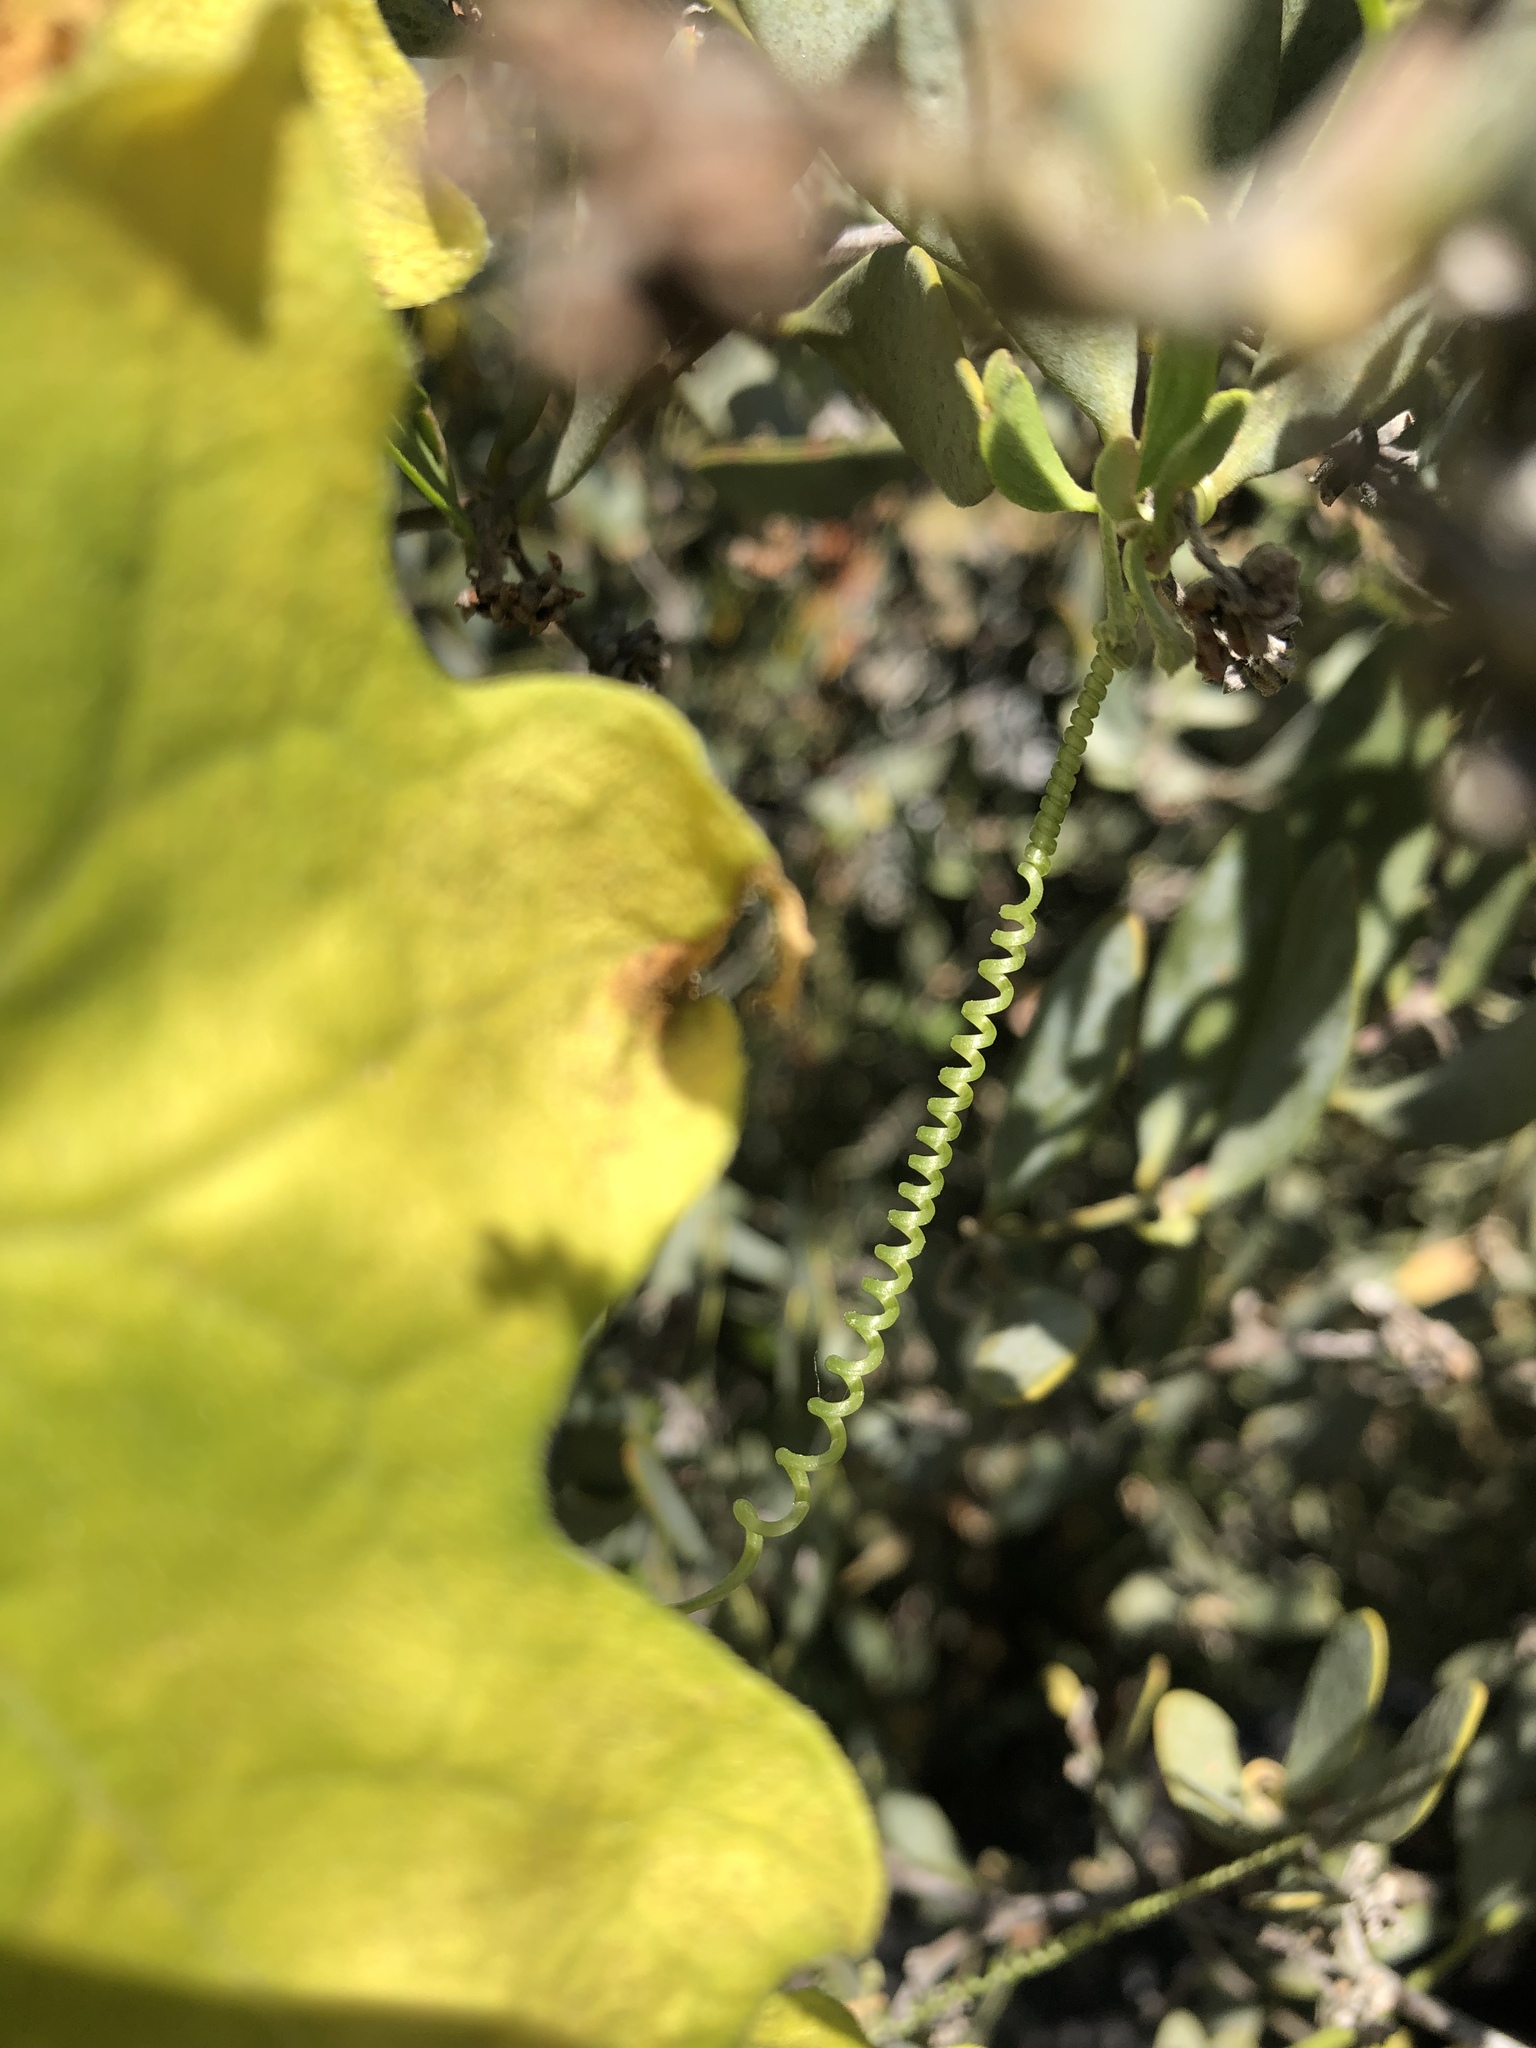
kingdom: Plantae
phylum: Tracheophyta
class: Magnoliopsida
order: Cucurbitales
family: Cucurbitaceae
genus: Marah
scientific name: Marah macrocarpa
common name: Cucamonga manroot
